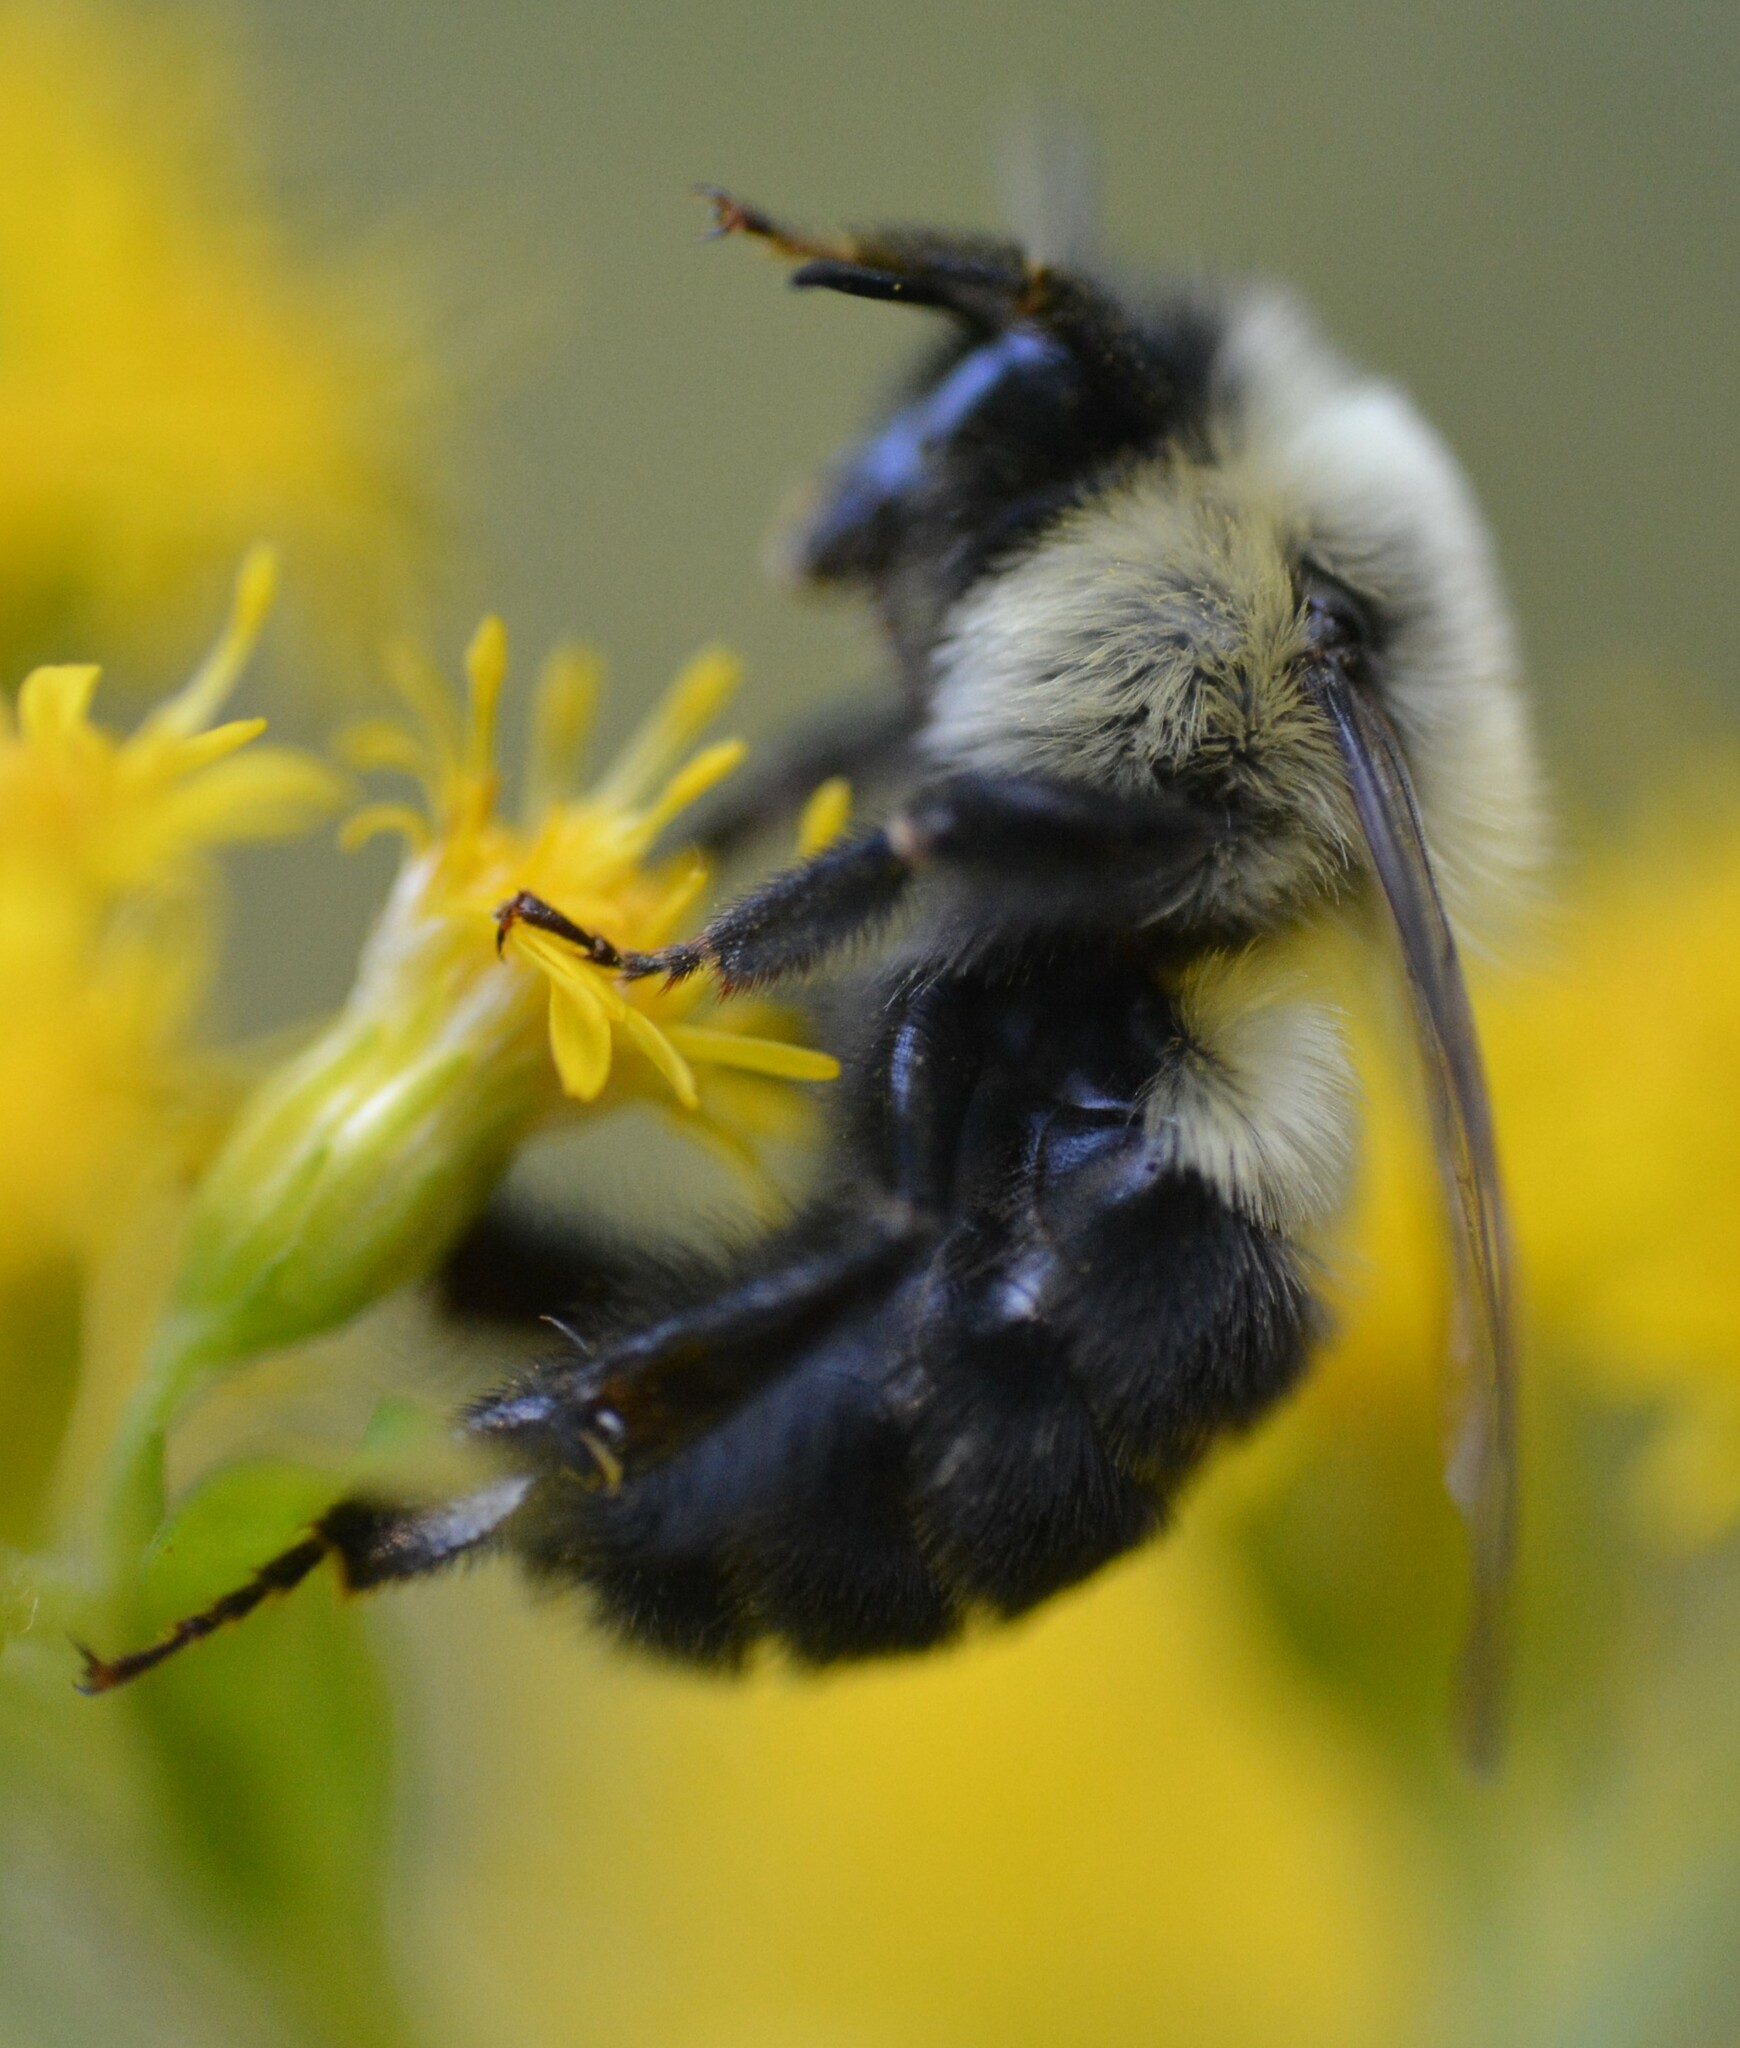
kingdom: Animalia
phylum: Arthropoda
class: Insecta
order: Hymenoptera
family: Apidae
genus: Bombus
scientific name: Bombus impatiens
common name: Common eastern bumble bee
